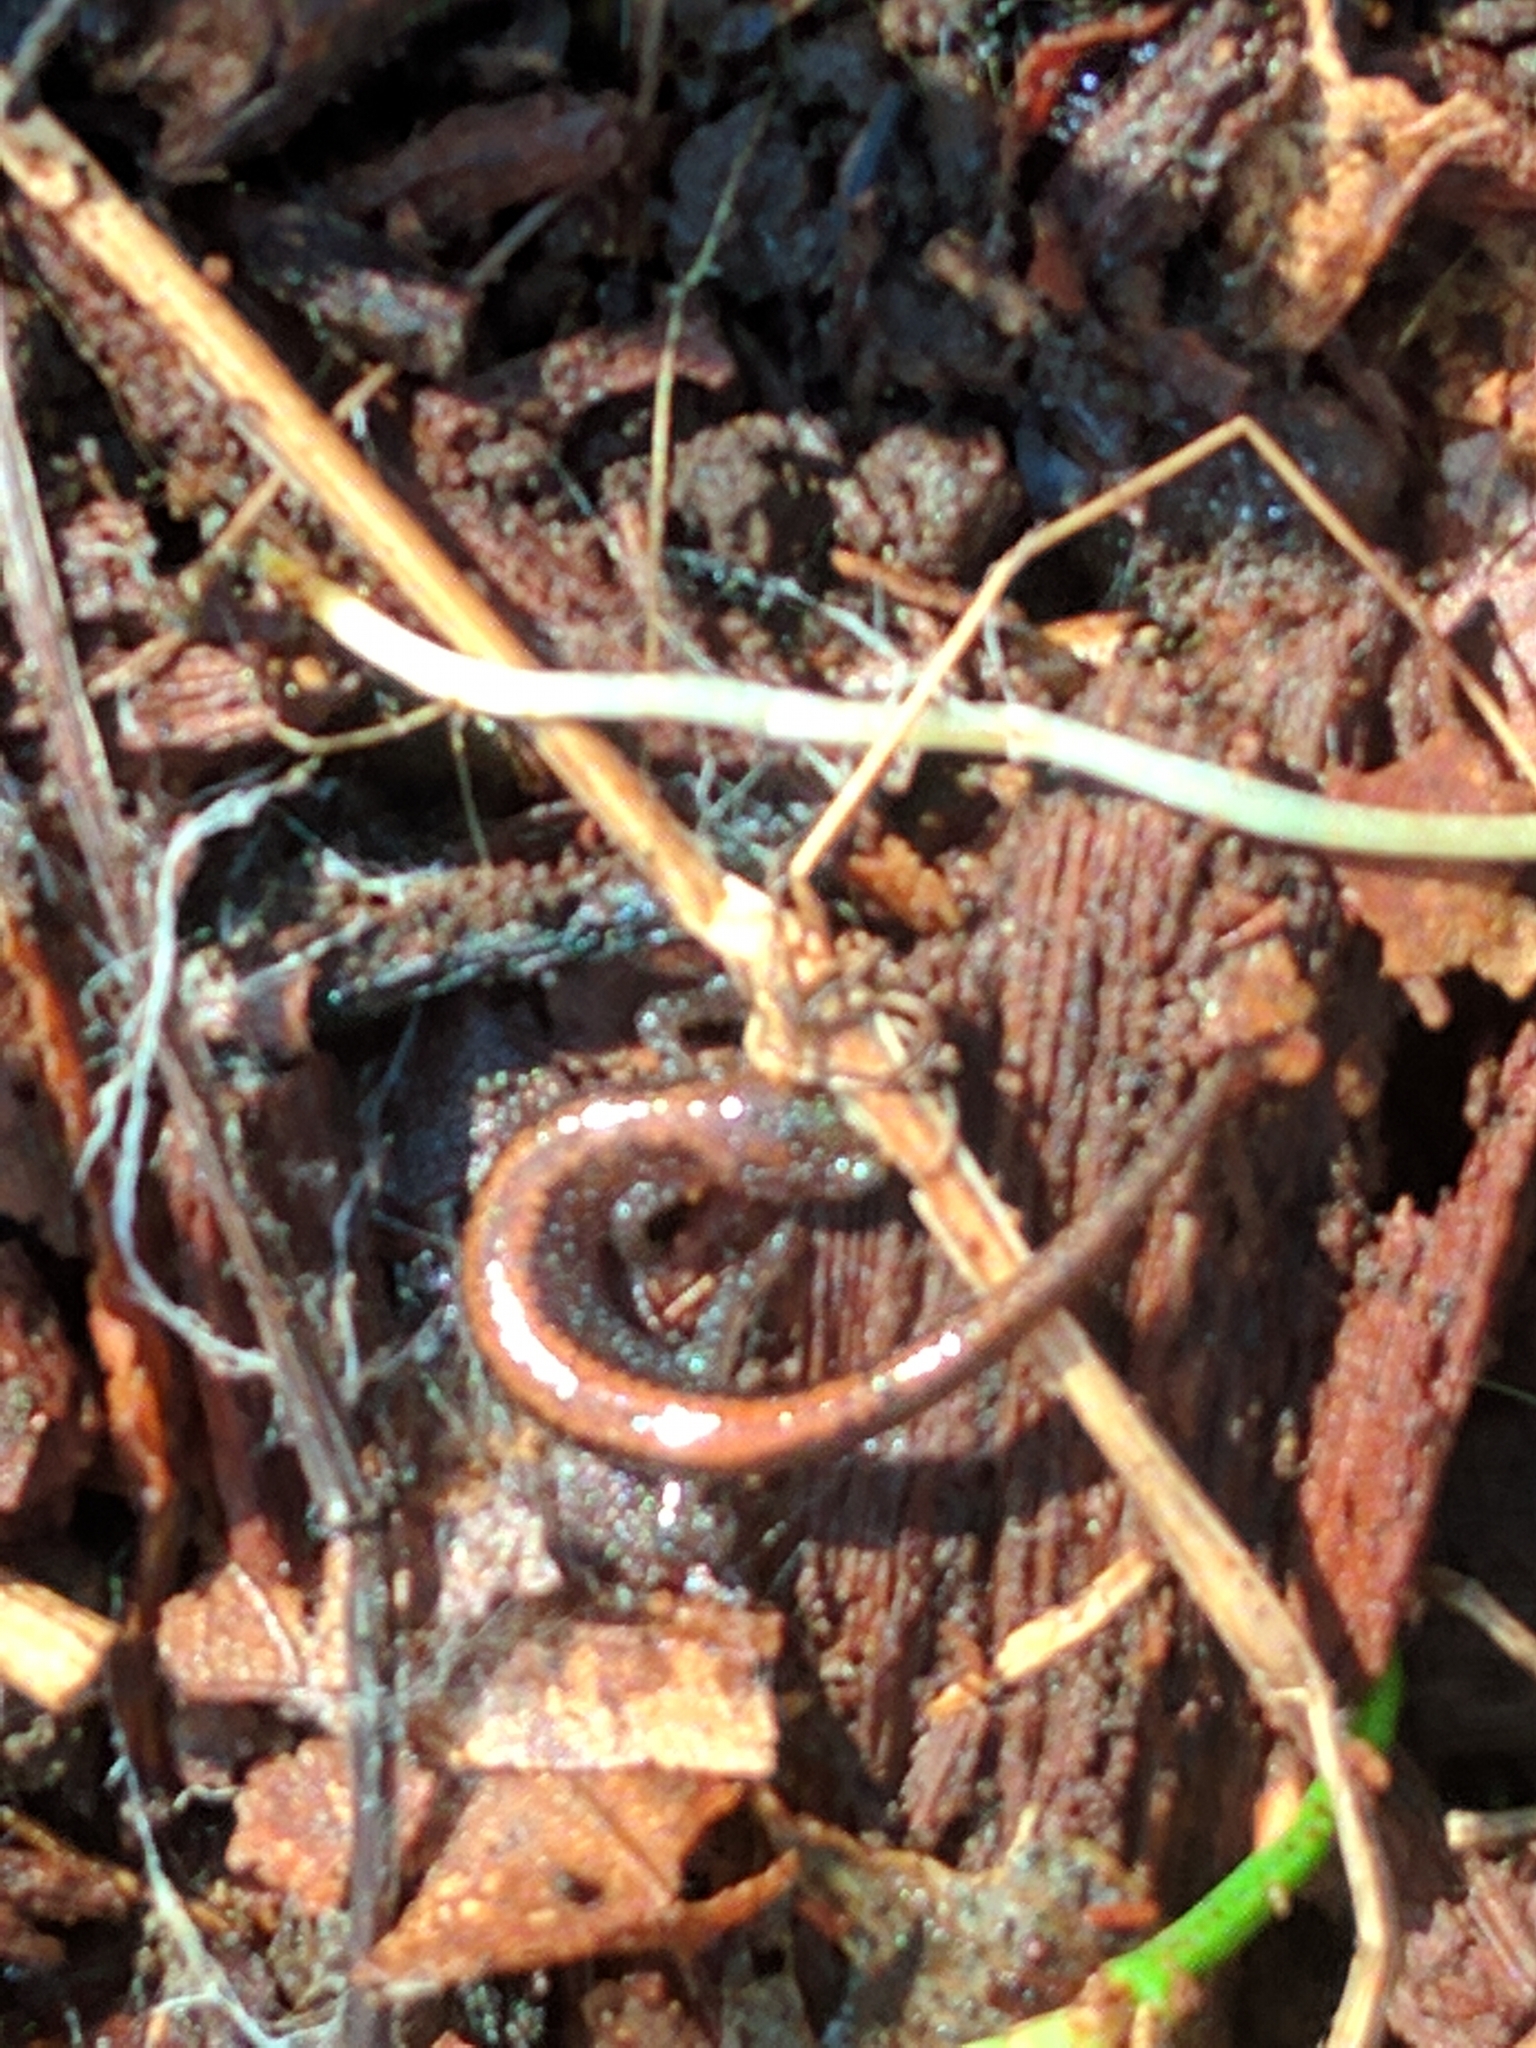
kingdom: Animalia
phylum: Chordata
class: Amphibia
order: Caudata
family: Plethodontidae
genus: Plethodon
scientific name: Plethodon cinereus
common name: Redback salamander
